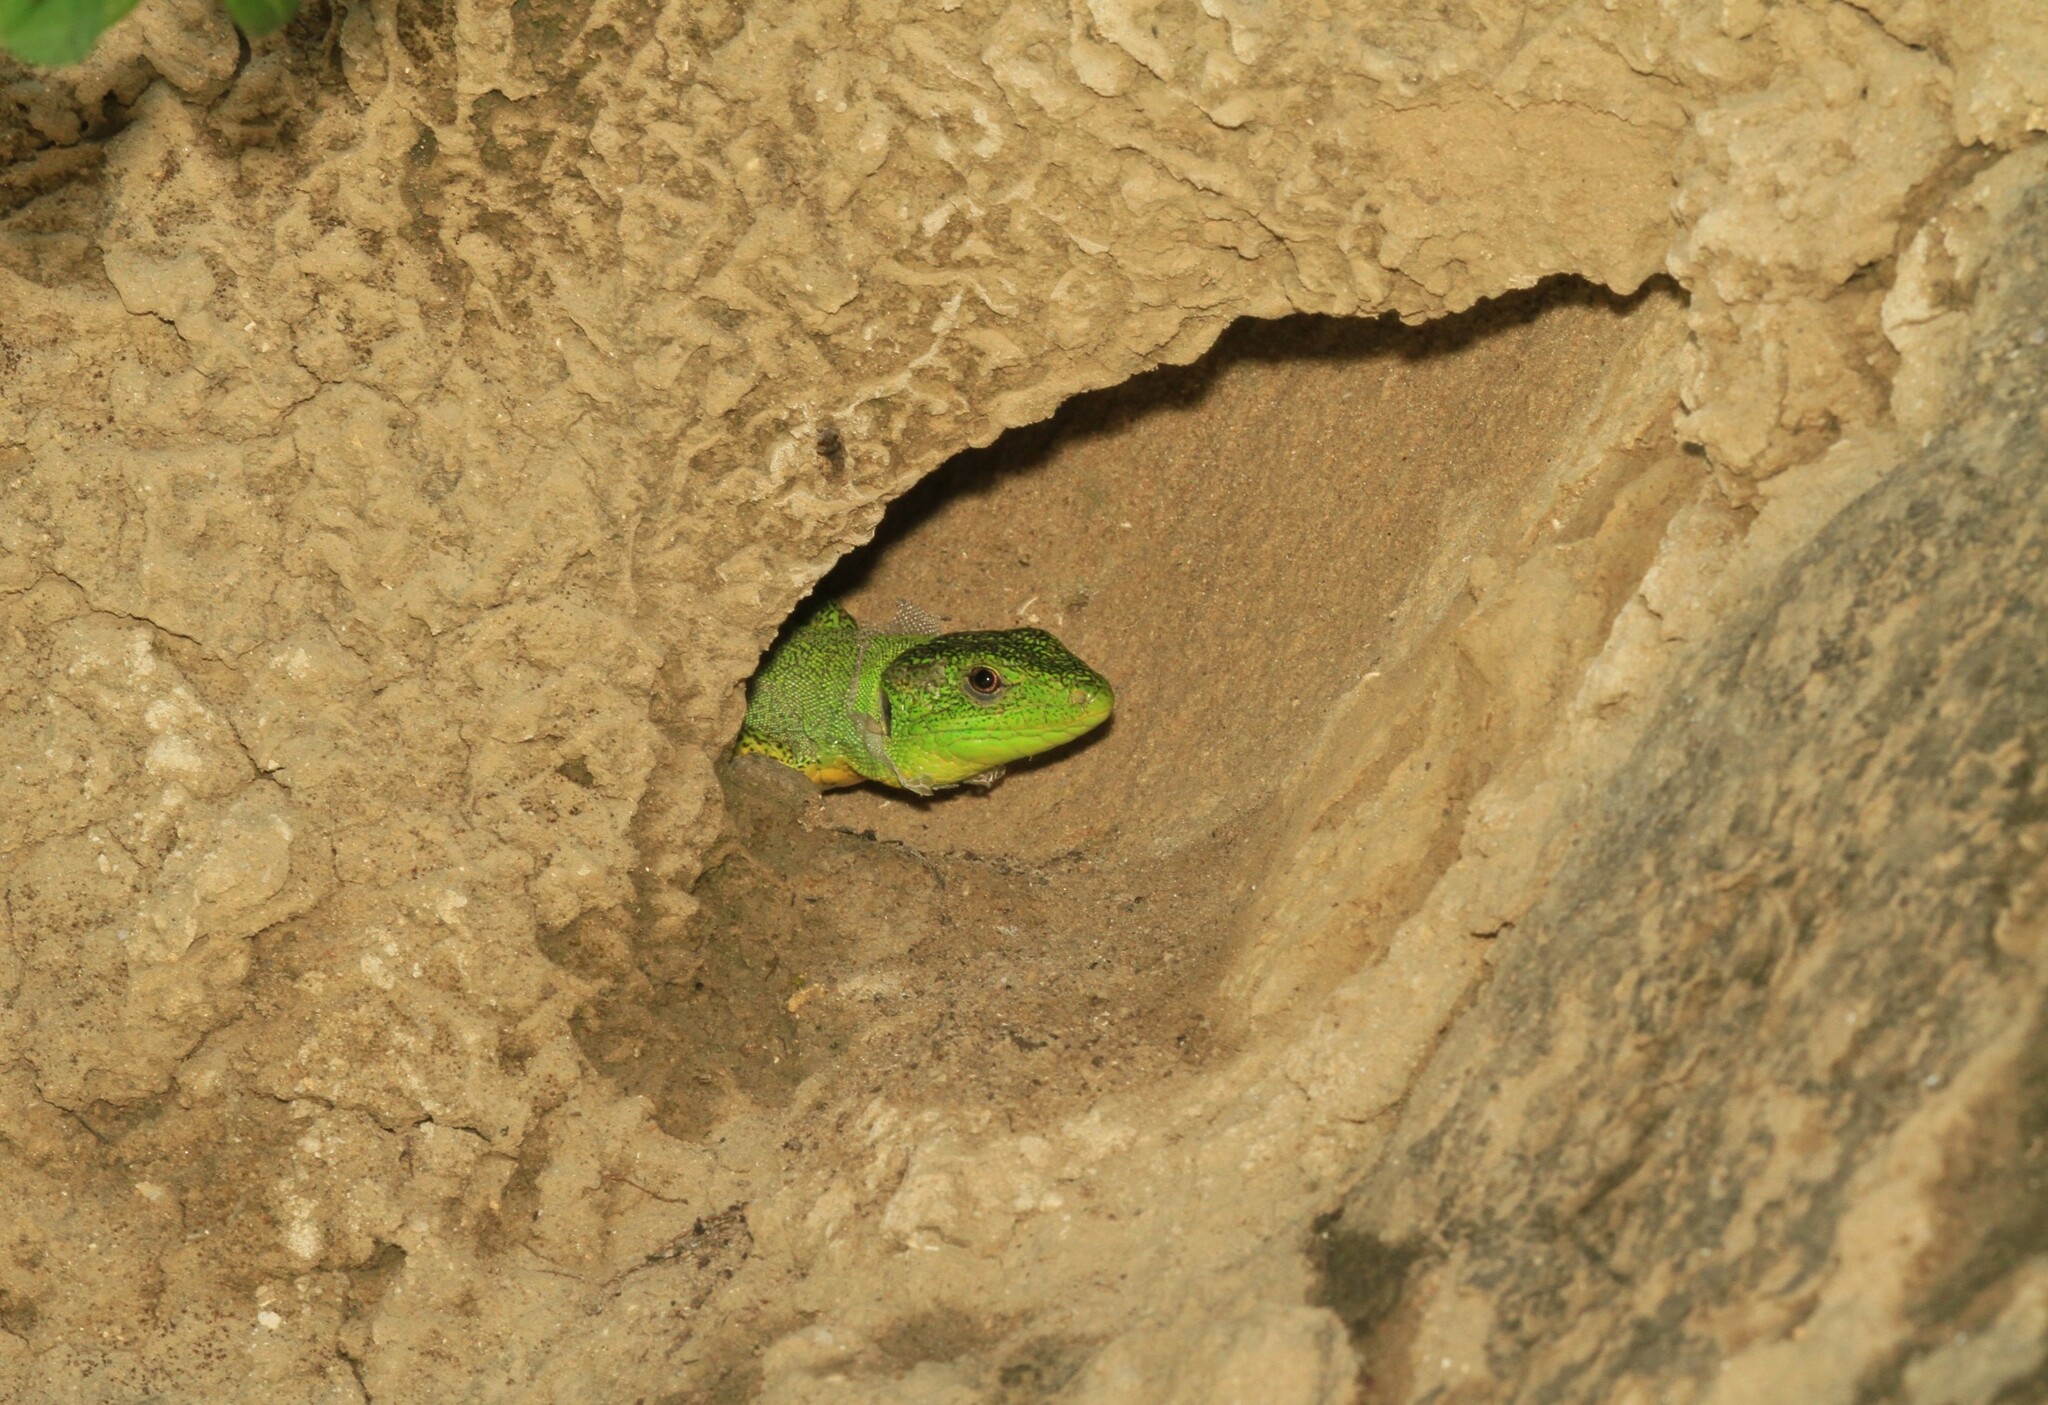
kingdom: Animalia
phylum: Chordata
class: Squamata
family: Lacertidae
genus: Lacerta
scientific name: Lacerta trilineata
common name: Balkan green lizard
